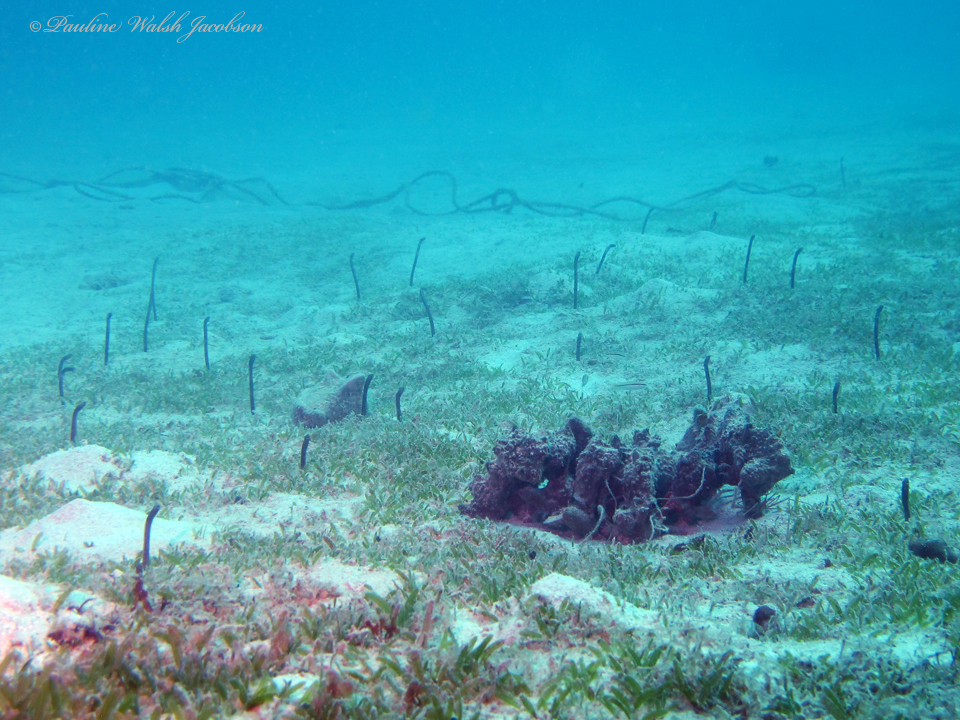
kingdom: Animalia
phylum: Chordata
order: Anguilliformes
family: Congridae
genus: Heteroconger
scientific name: Heteroconger longissimus
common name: Garden eel
